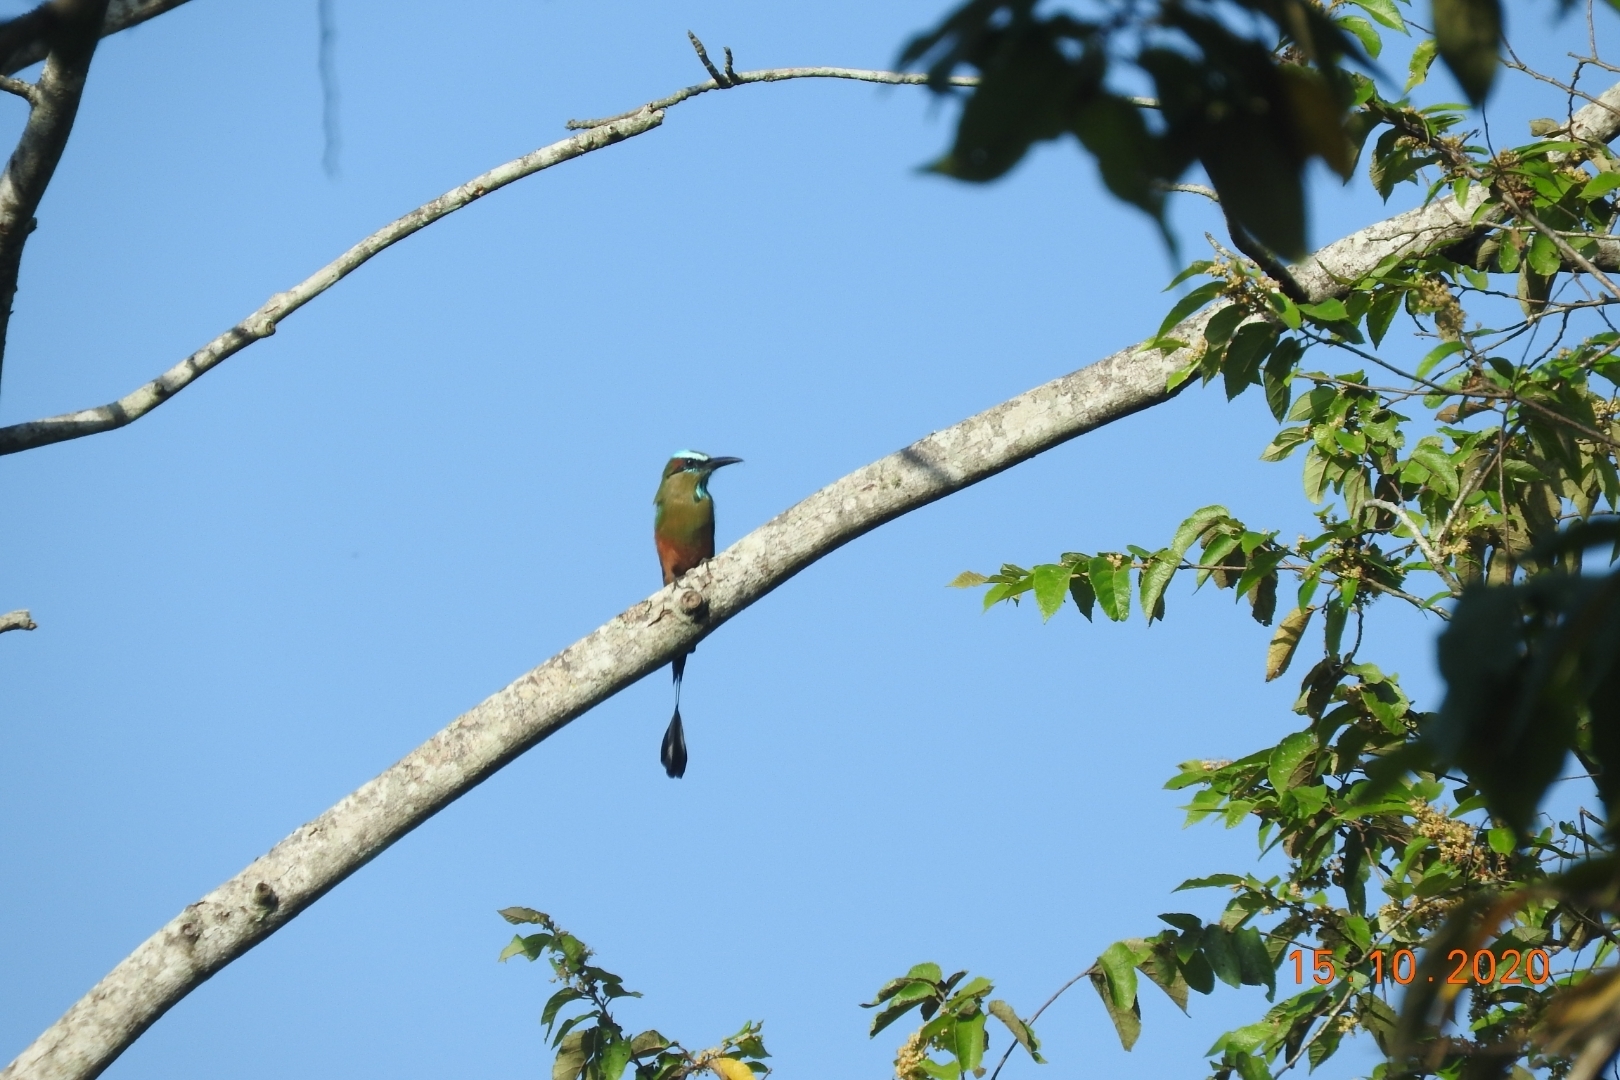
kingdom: Animalia
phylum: Chordata
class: Aves
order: Coraciiformes
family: Momotidae
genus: Eumomota
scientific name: Eumomota superciliosa
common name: Turquoise-browed motmot
